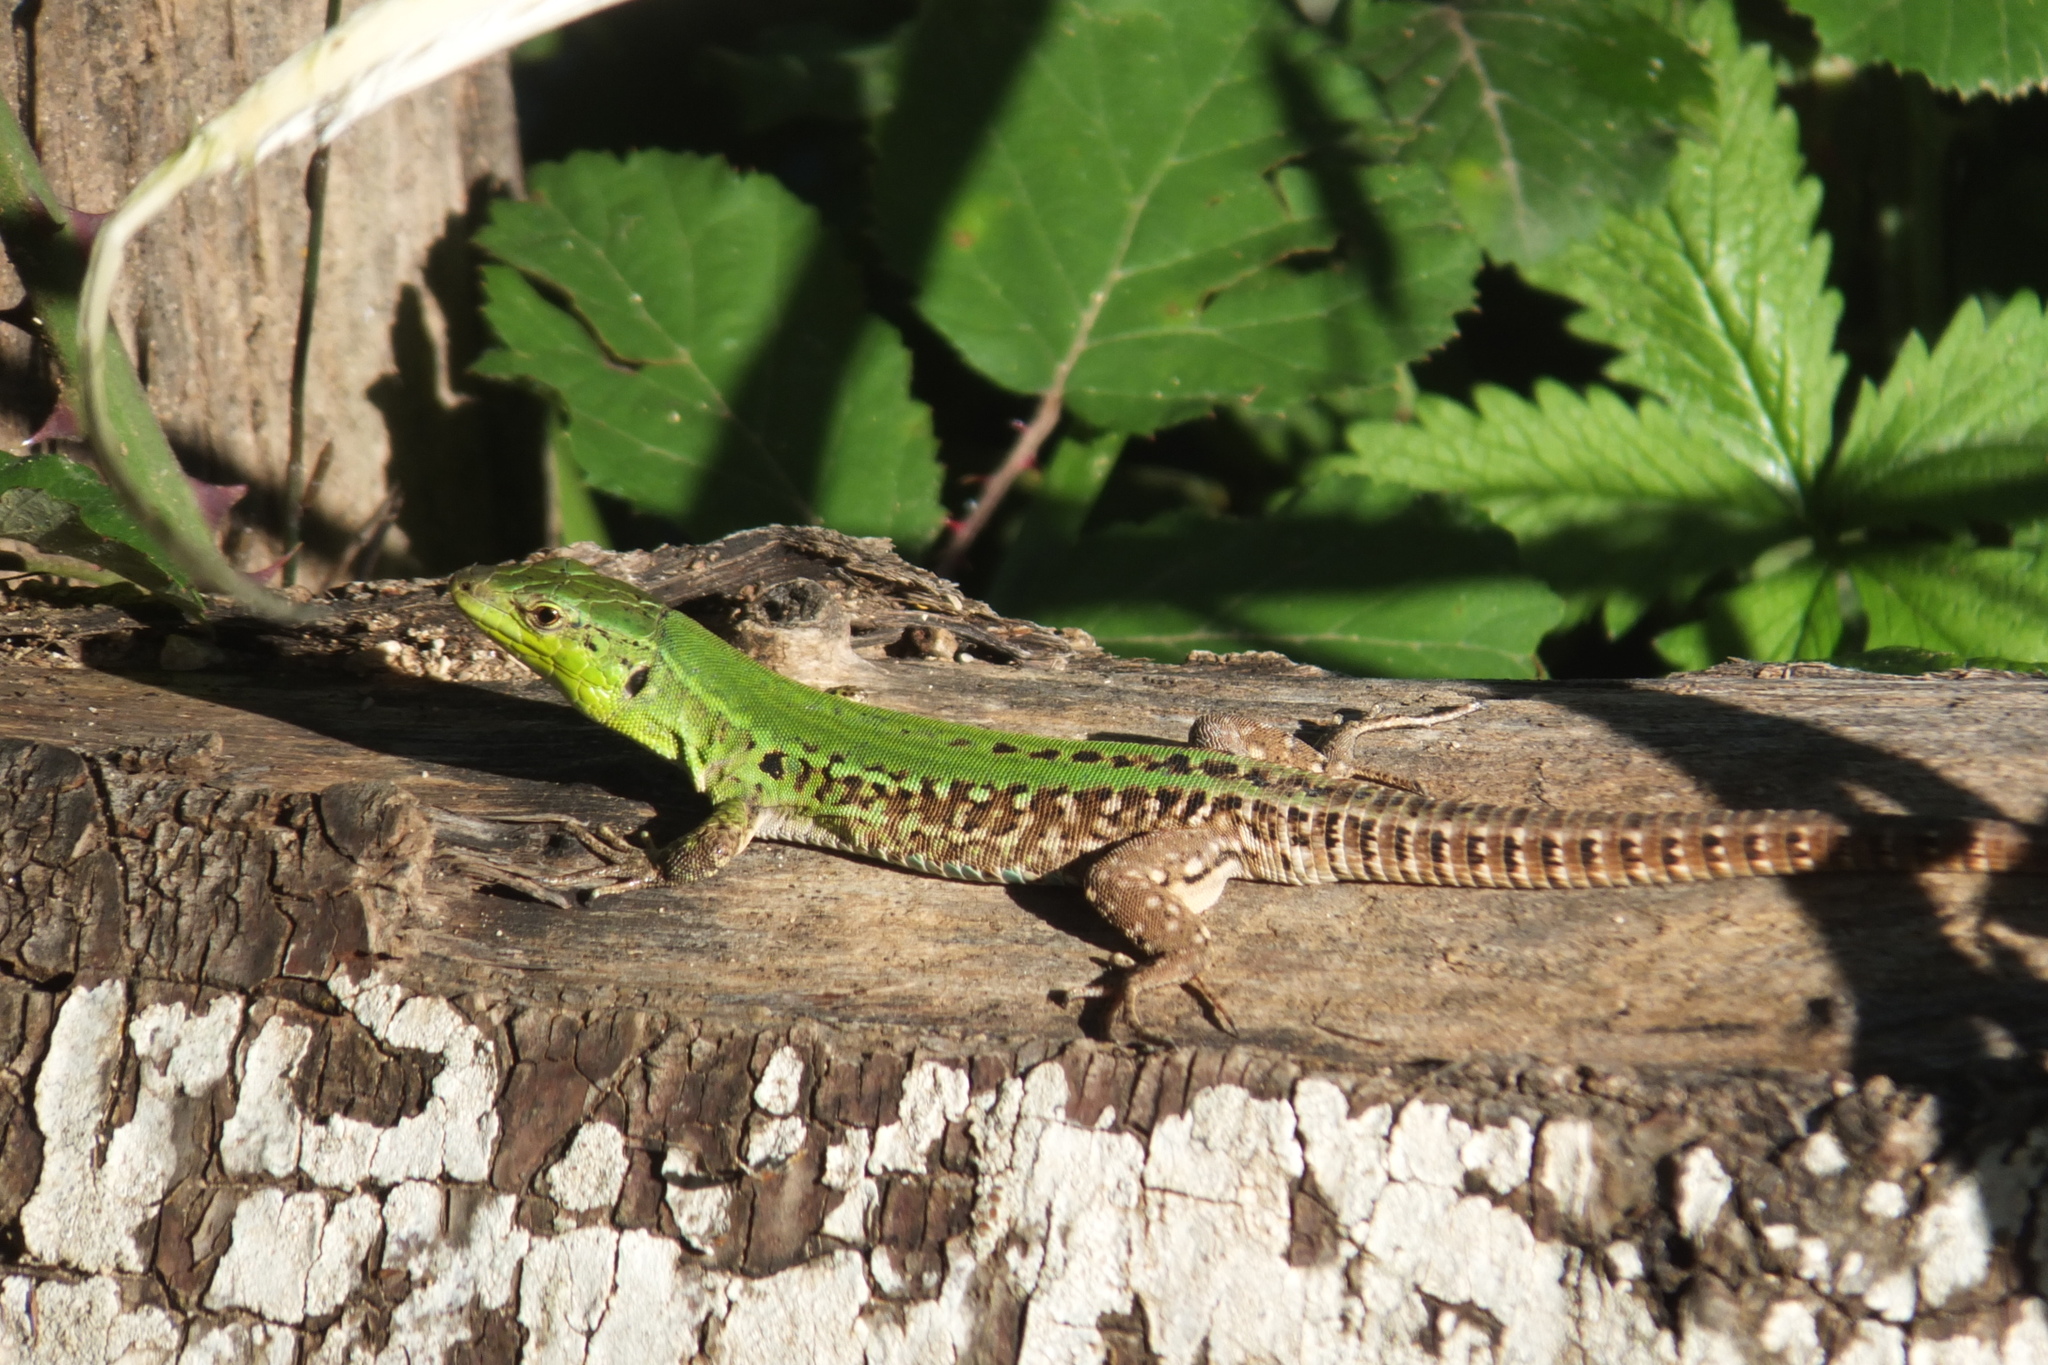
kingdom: Animalia
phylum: Chordata
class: Squamata
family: Lacertidae
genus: Podarcis
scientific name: Podarcis siculus
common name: Italian wall lizard
